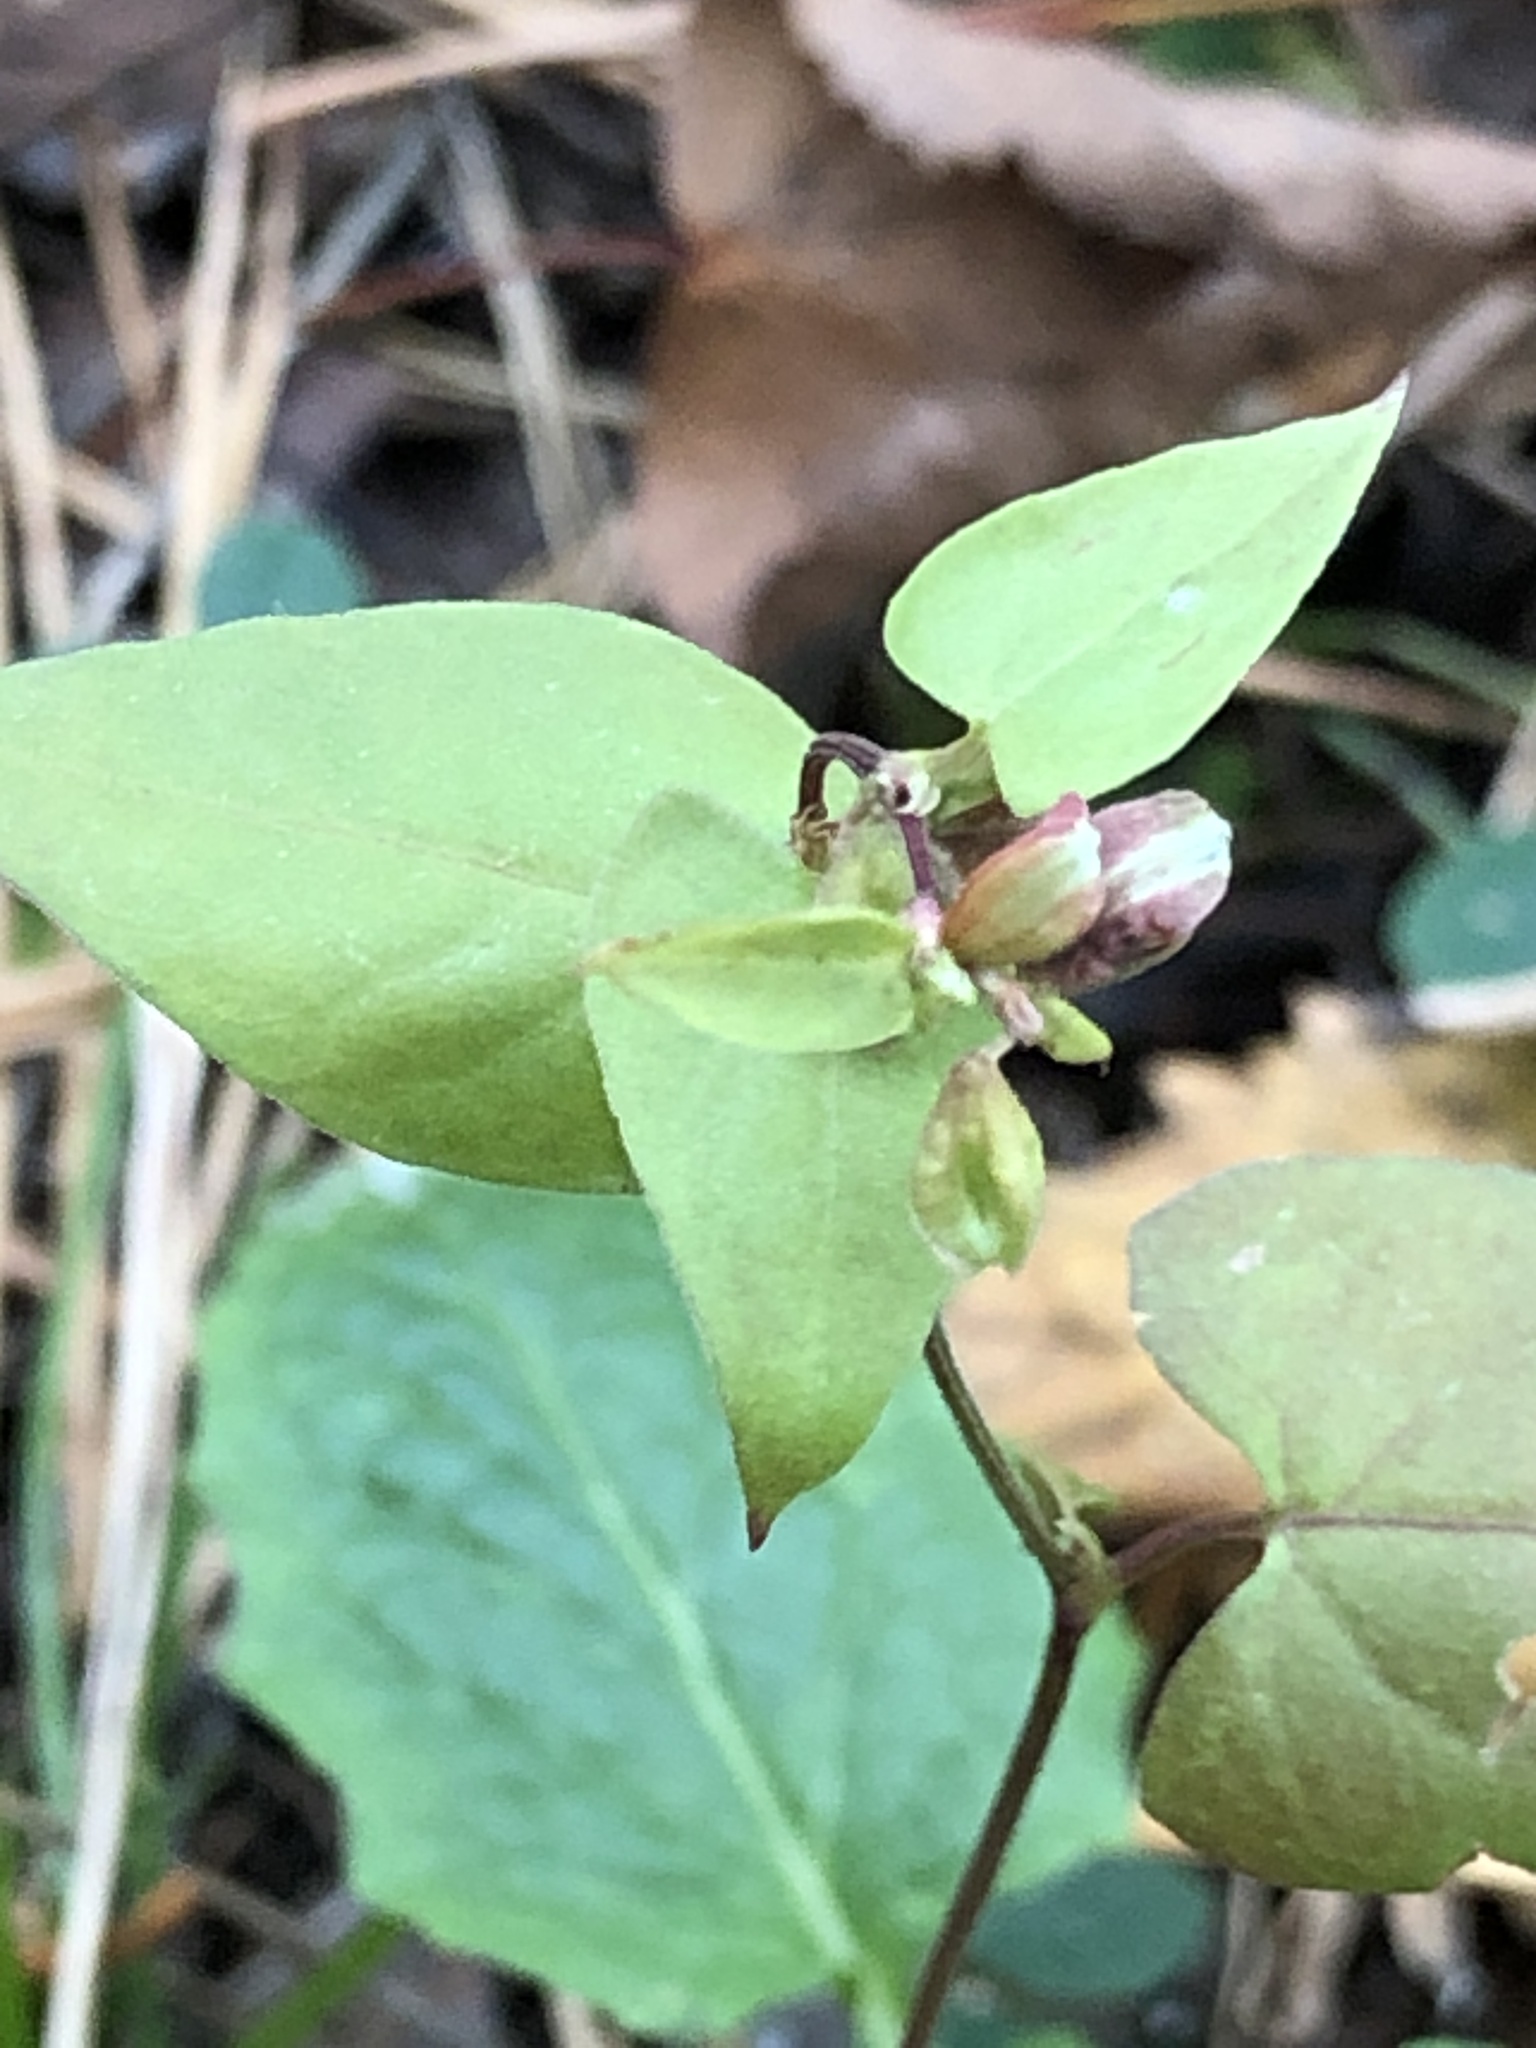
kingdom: Plantae
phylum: Tracheophyta
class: Magnoliopsida
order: Caryophyllales
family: Polygonaceae
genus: Fallopia
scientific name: Fallopia convolvulus
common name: Black bindweed
